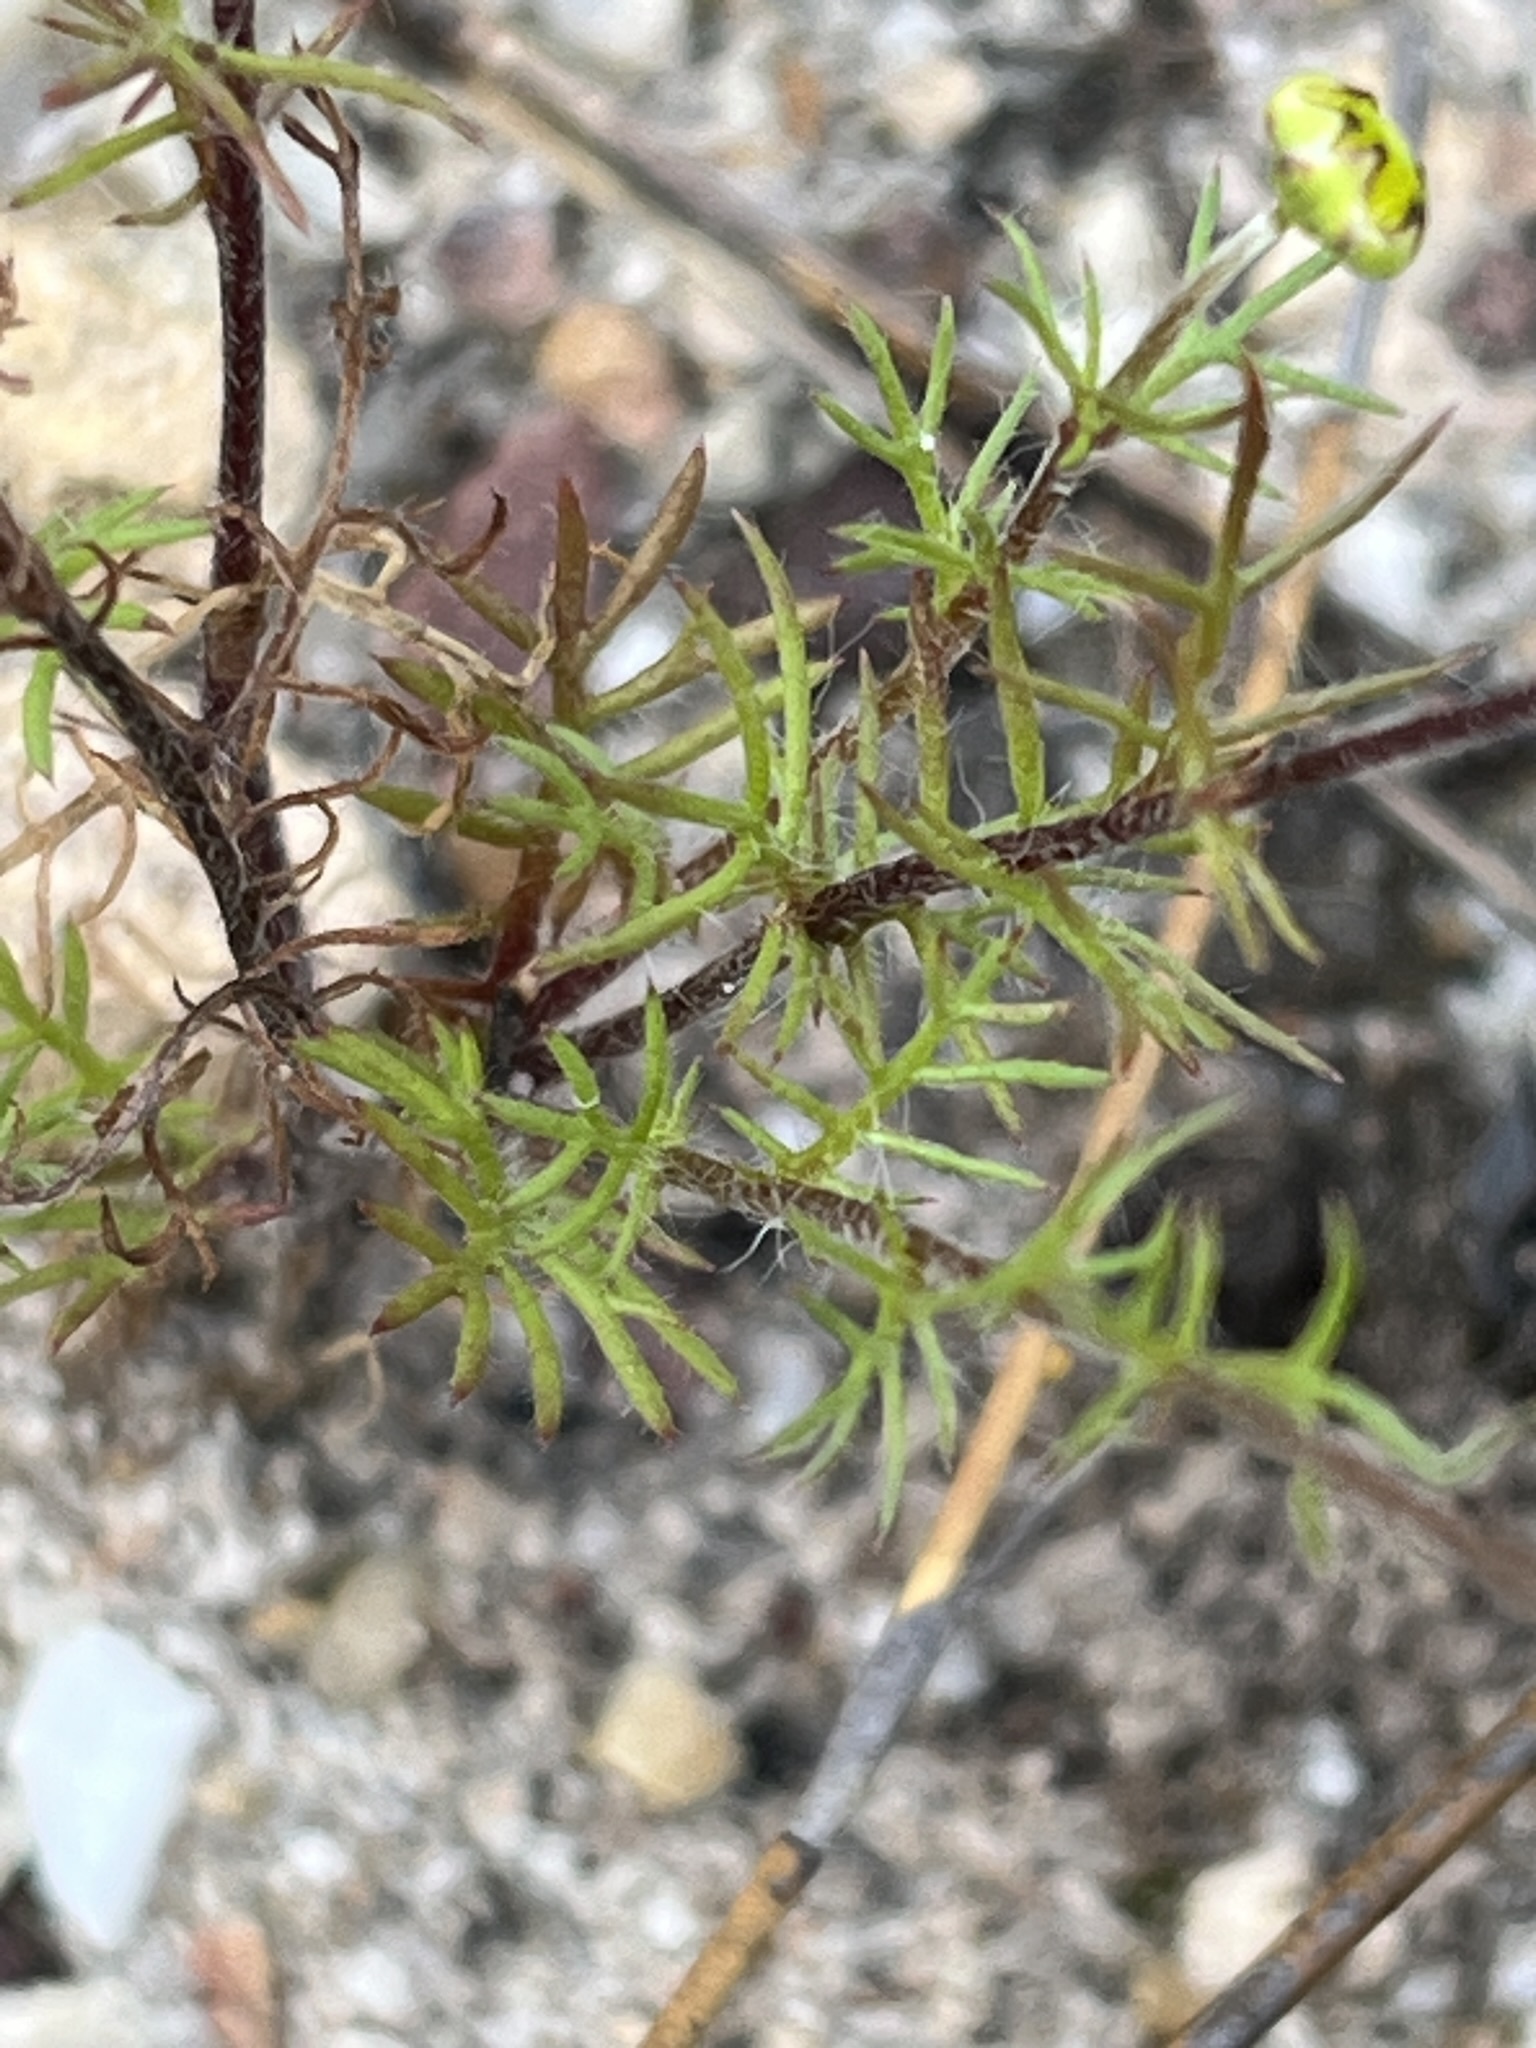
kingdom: Plantae
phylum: Tracheophyta
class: Magnoliopsida
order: Asterales
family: Asteraceae
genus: Cotula
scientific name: Cotula turbinata
